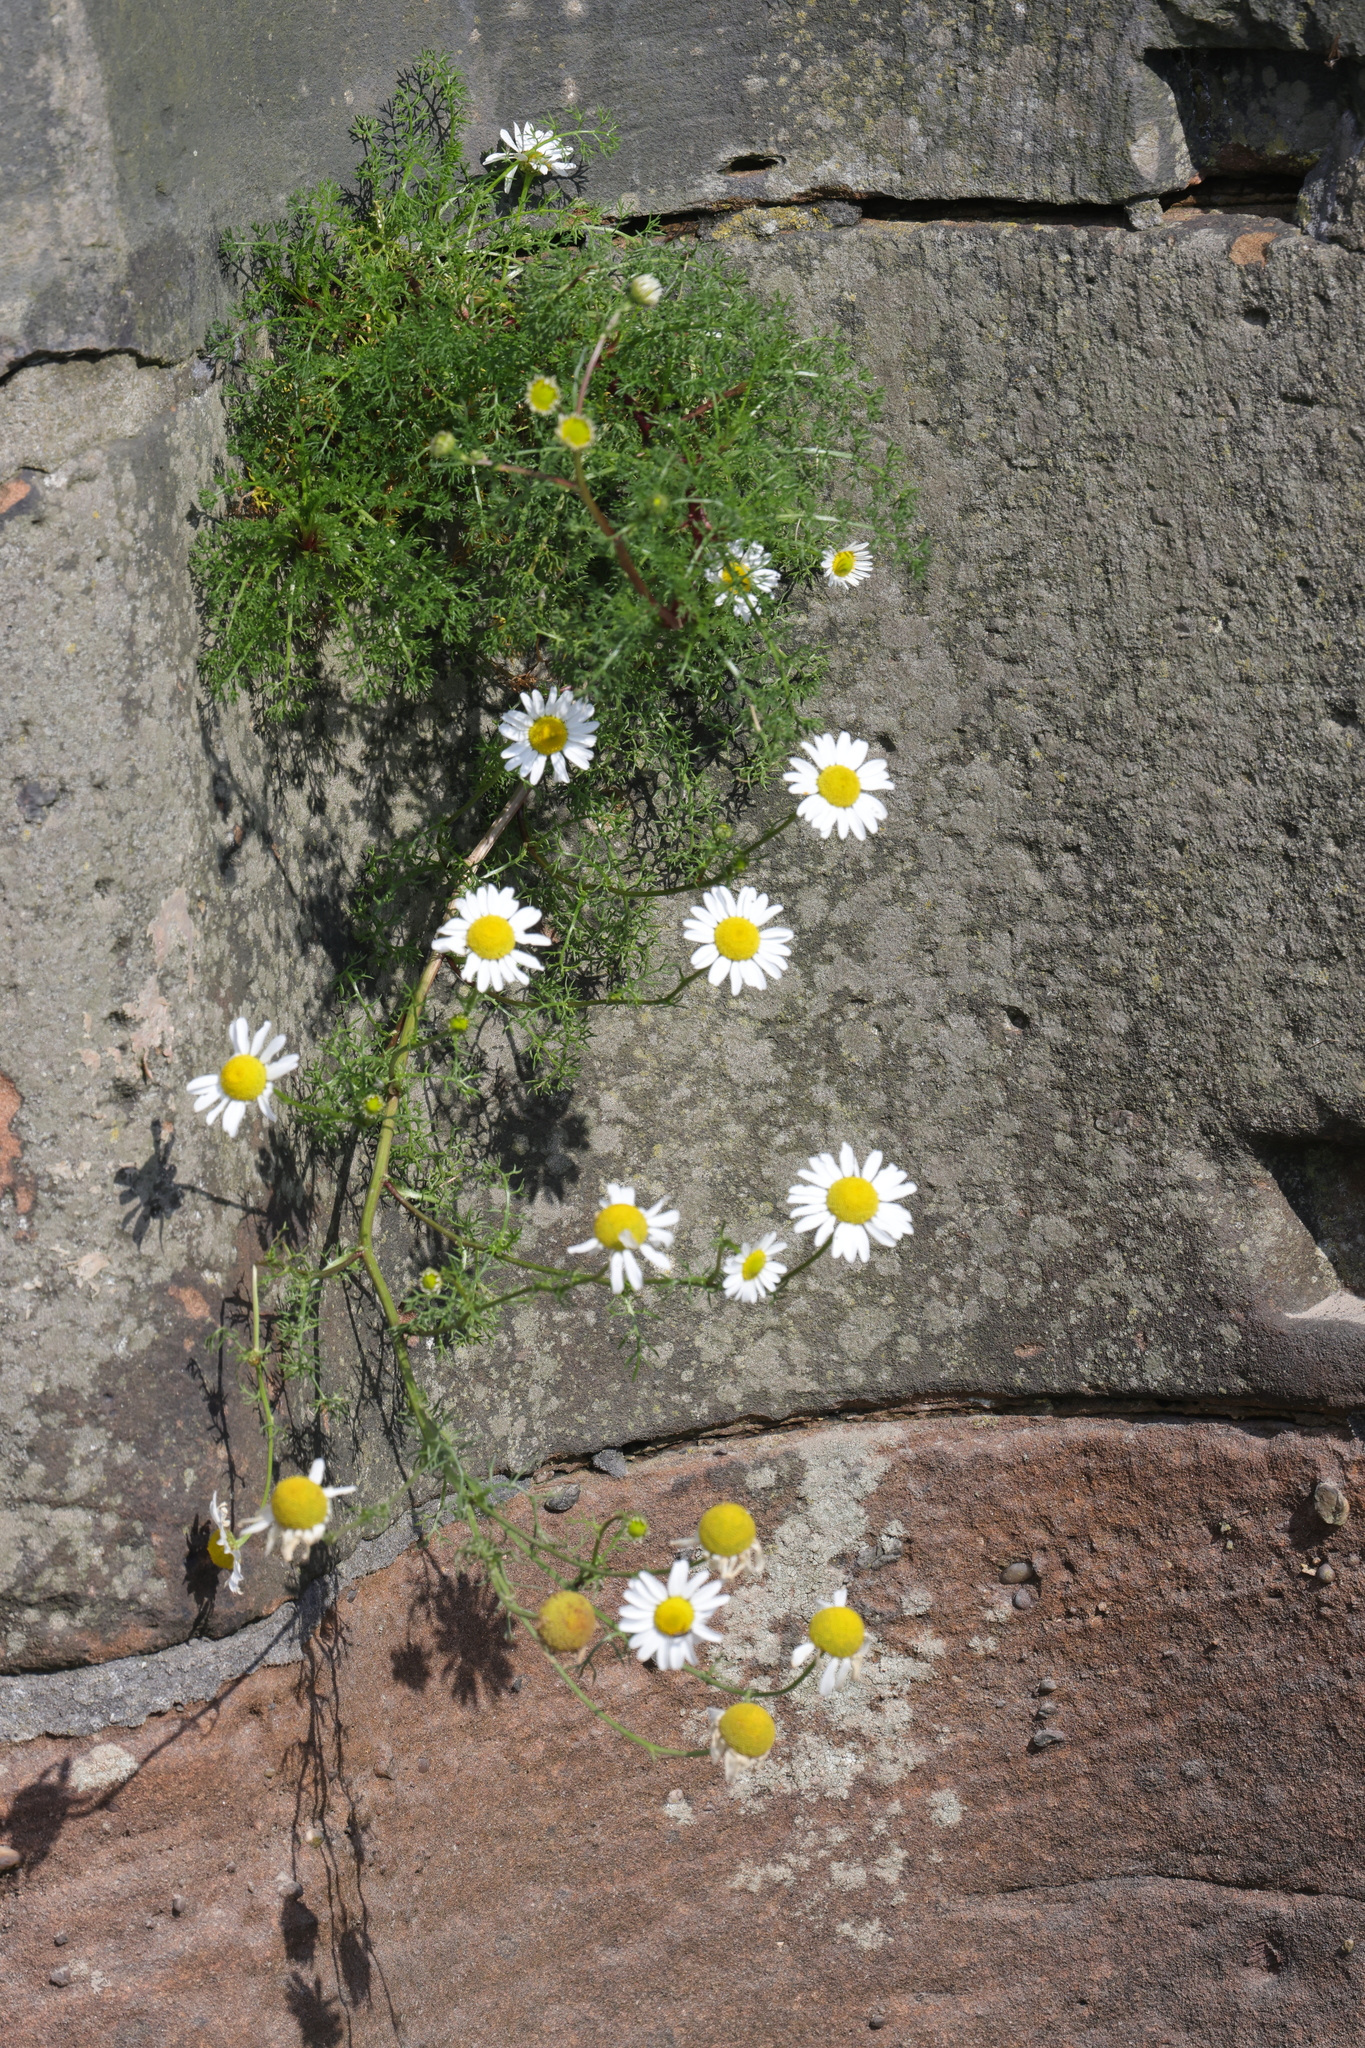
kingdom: Plantae
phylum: Tracheophyta
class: Magnoliopsida
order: Asterales
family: Asteraceae
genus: Tripleurospermum
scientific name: Tripleurospermum maritimum
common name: Sea mayweed
